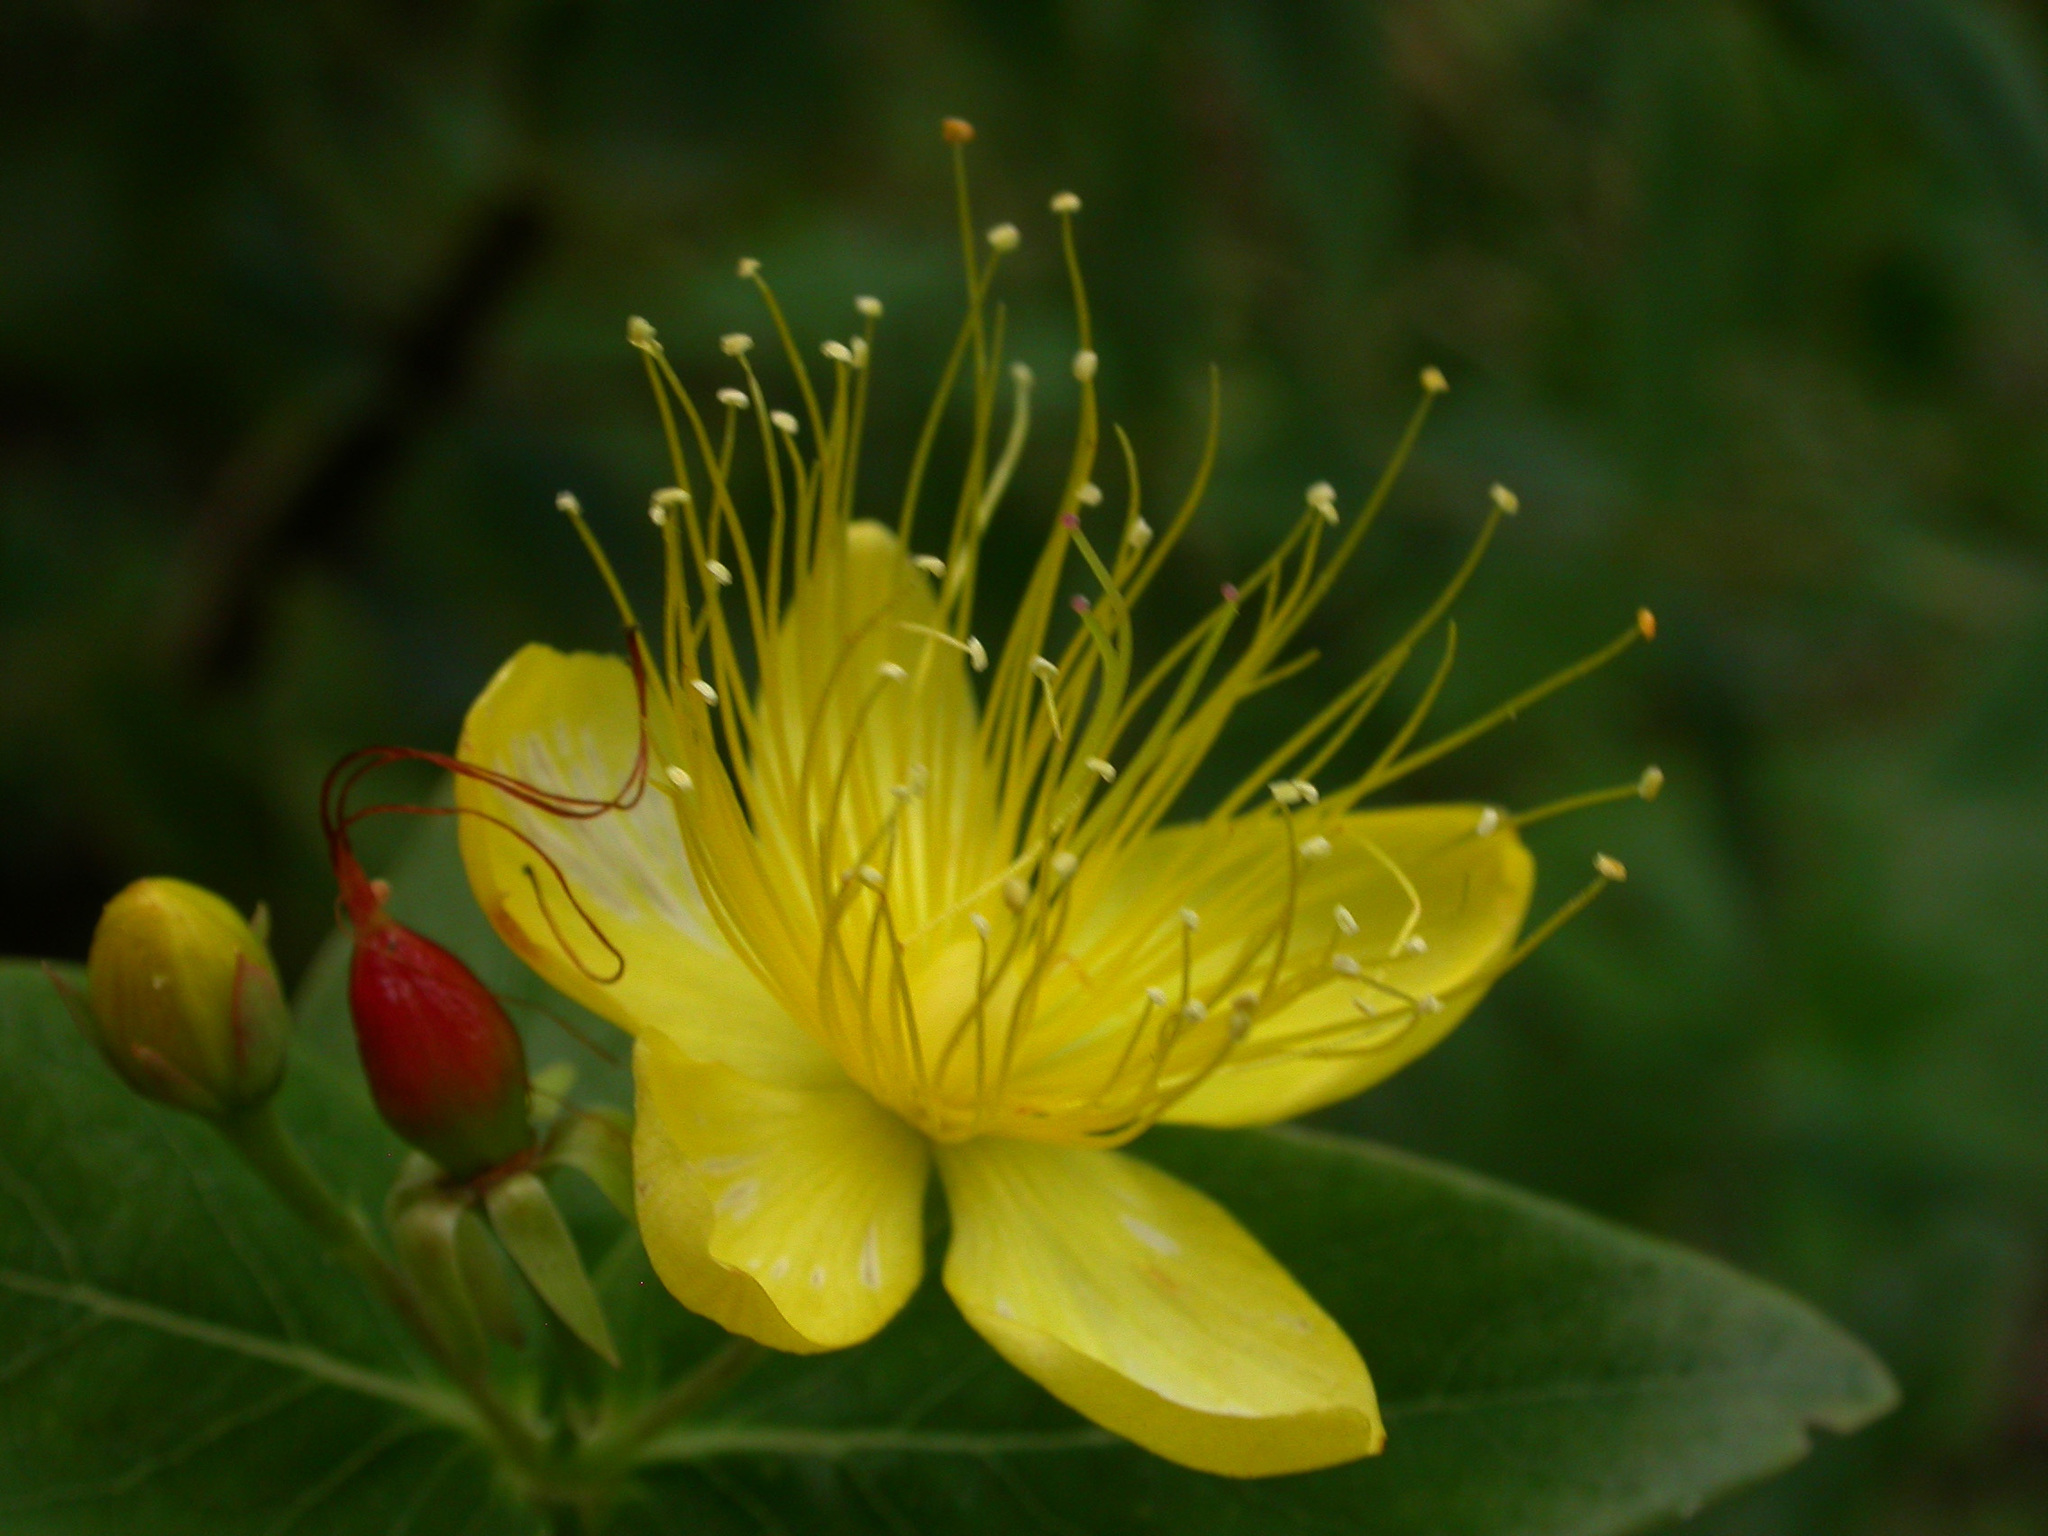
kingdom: Plantae
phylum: Tracheophyta
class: Magnoliopsida
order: Malpighiales
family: Hypericaceae
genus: Hypericum
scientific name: Hypericum hircinum
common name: Stinking tutsan
